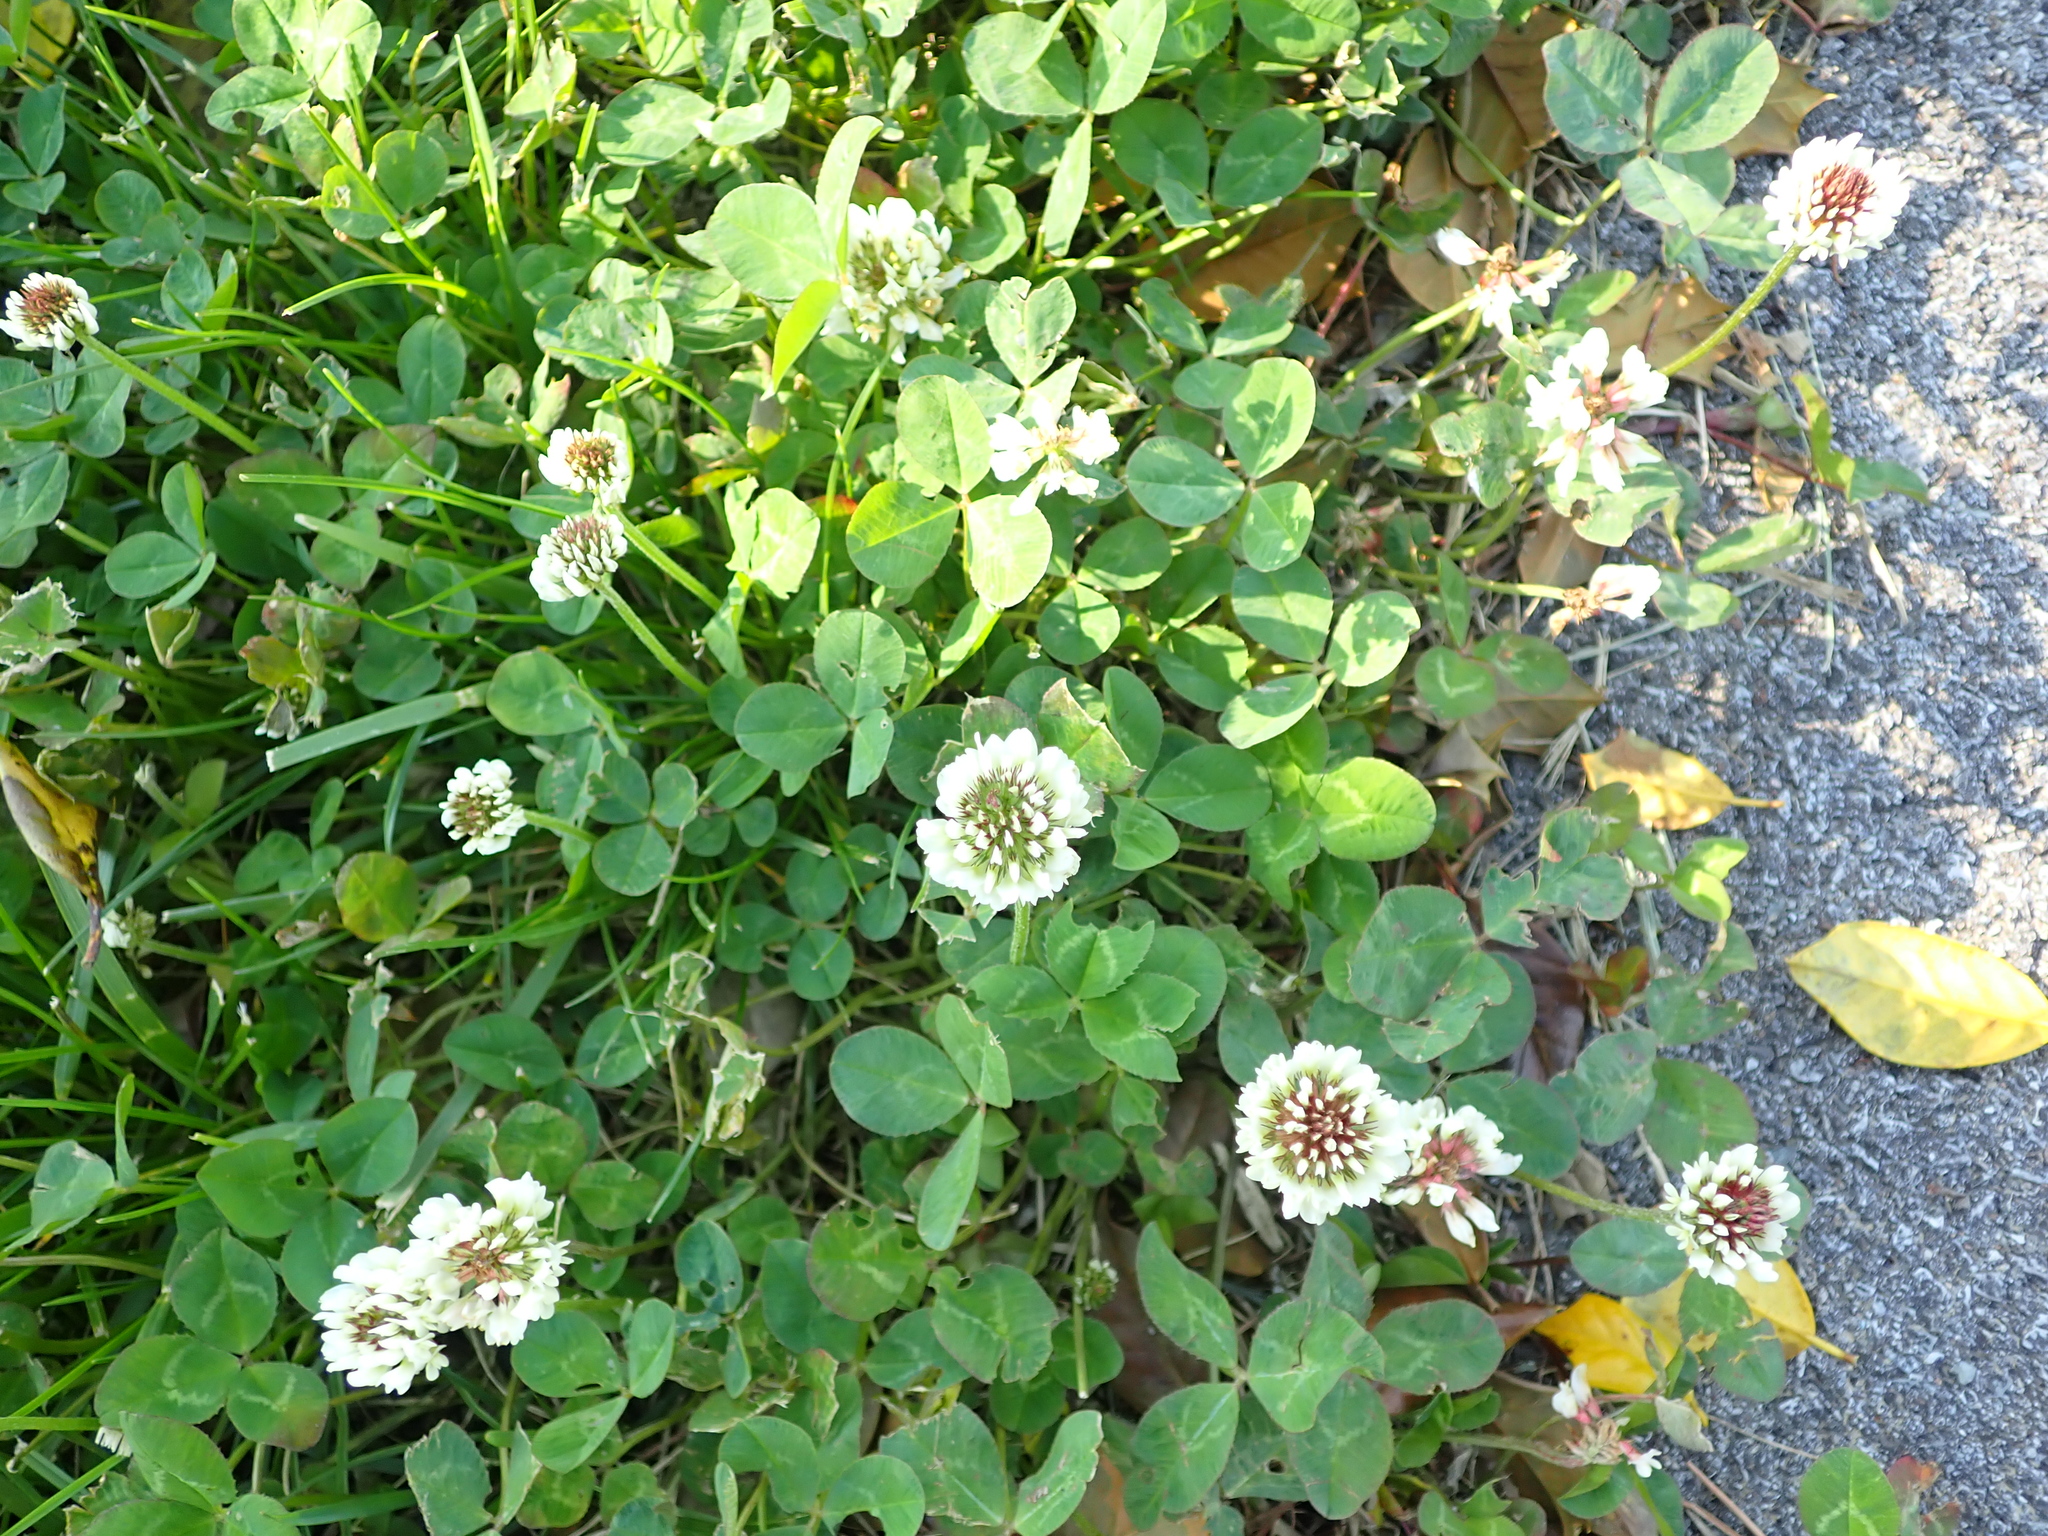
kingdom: Plantae
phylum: Tracheophyta
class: Magnoliopsida
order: Fabales
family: Fabaceae
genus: Trifolium
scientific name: Trifolium repens
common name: White clover
